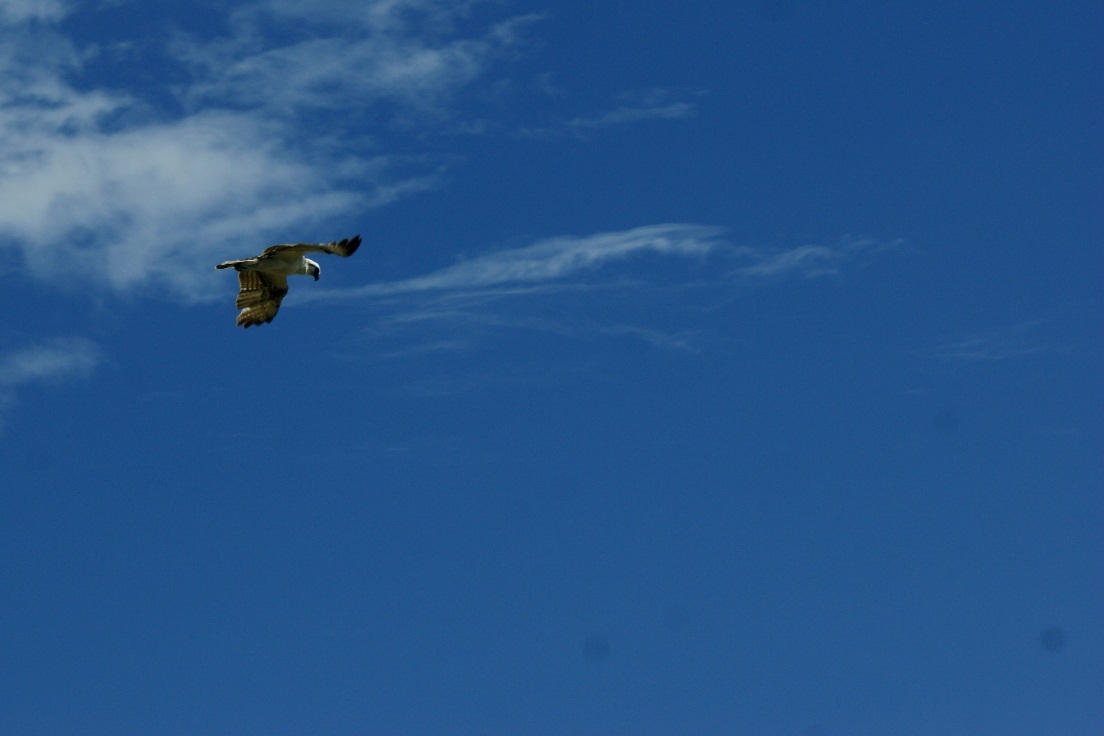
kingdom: Animalia
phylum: Chordata
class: Aves
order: Accipitriformes
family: Pandionidae
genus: Pandion
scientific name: Pandion haliaetus
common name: Osprey
